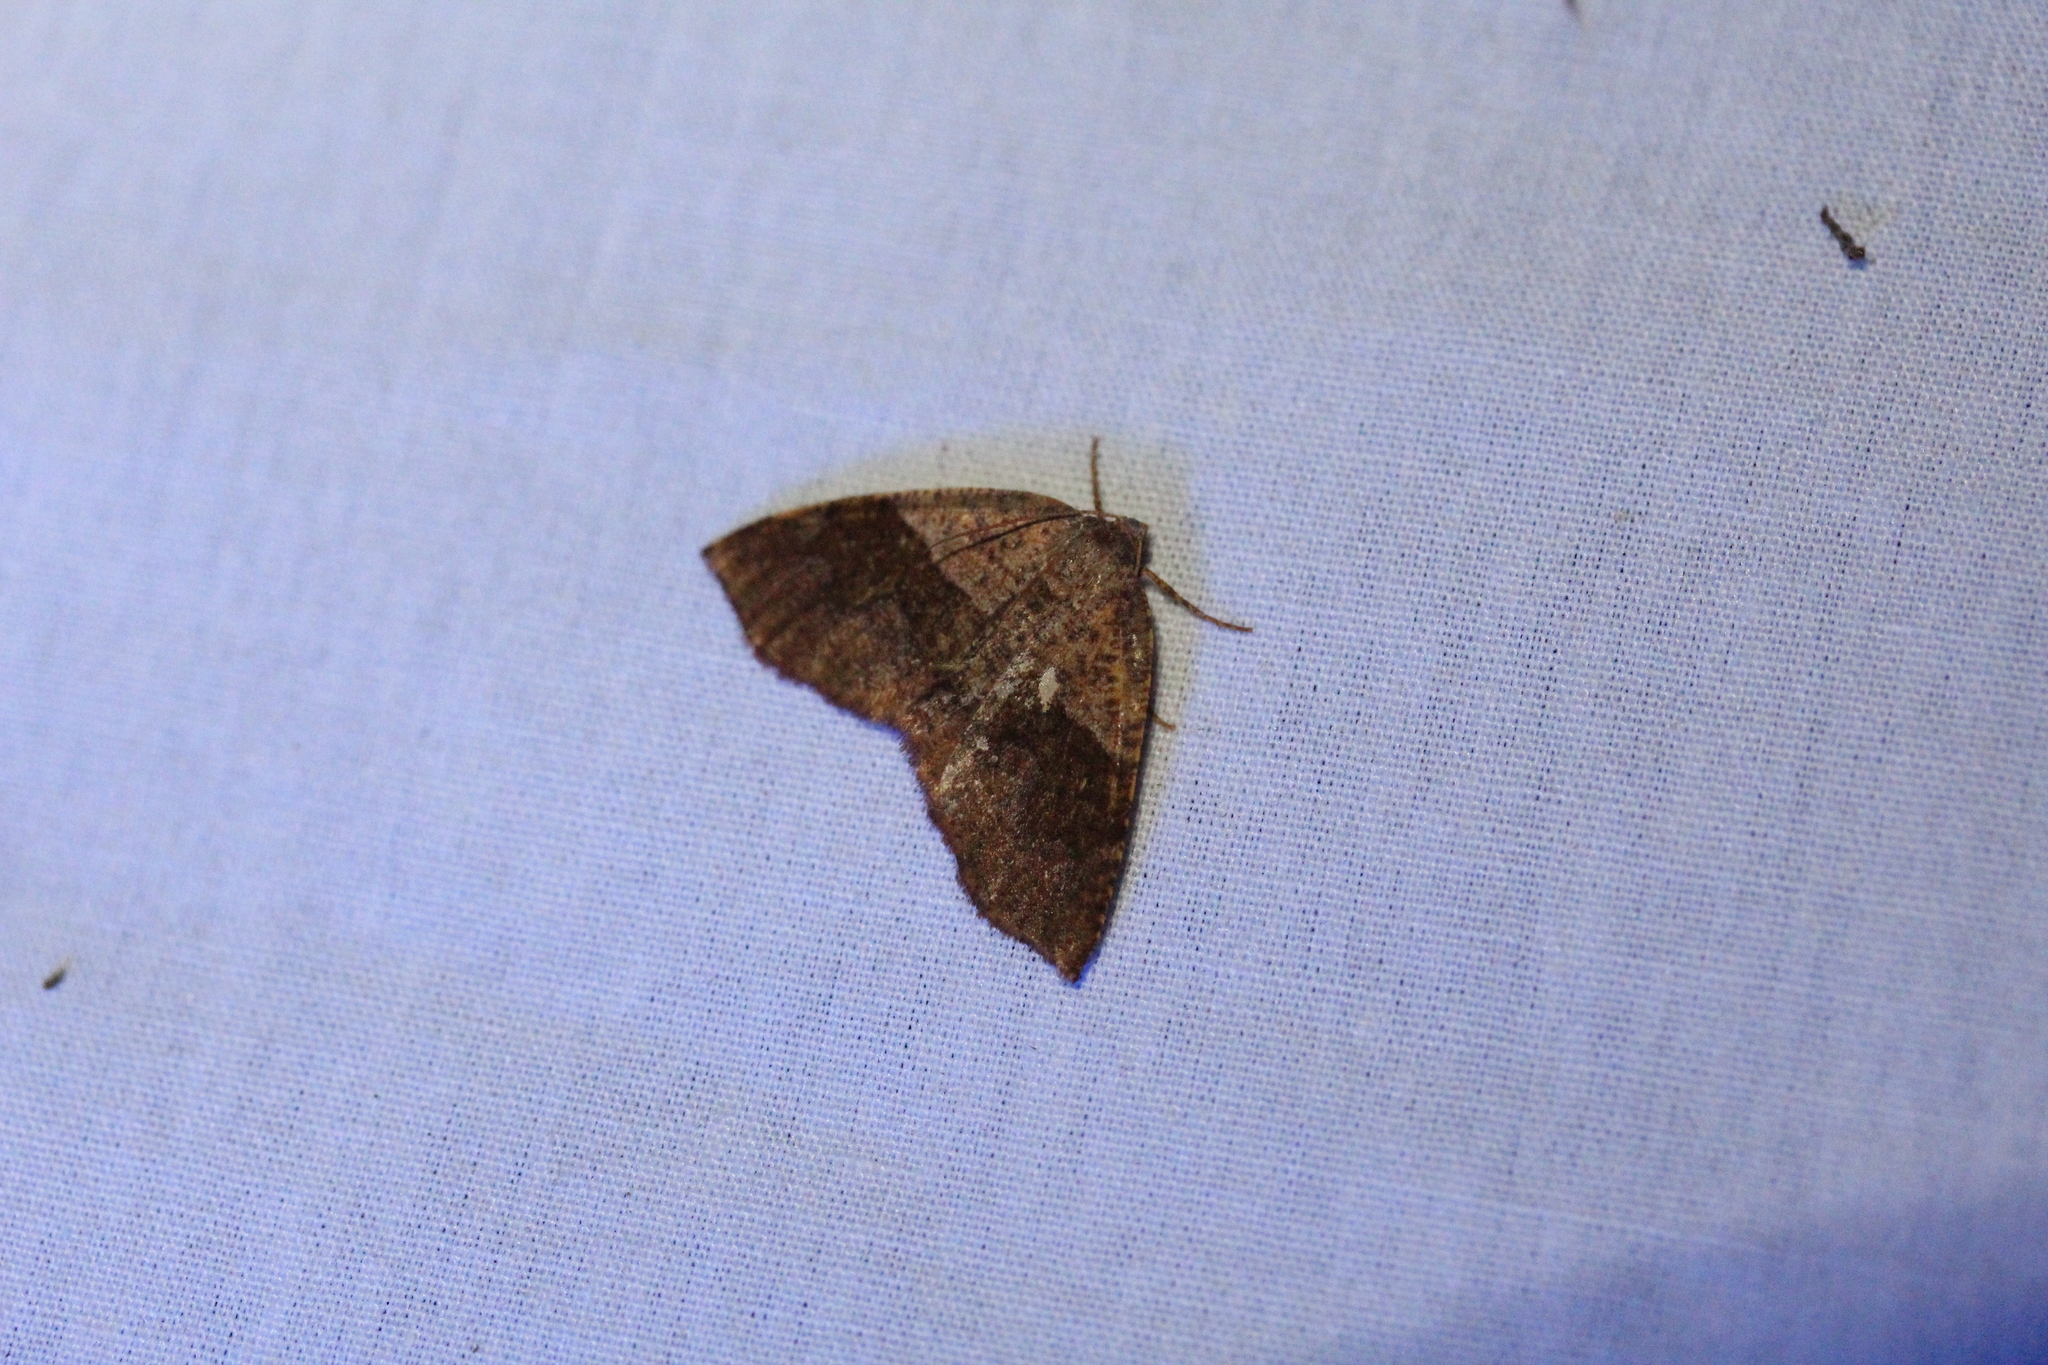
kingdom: Animalia
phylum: Arthropoda
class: Insecta
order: Lepidoptera
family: Geometridae
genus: Plagodis
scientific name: Plagodis pulveraria
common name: Barred umber
